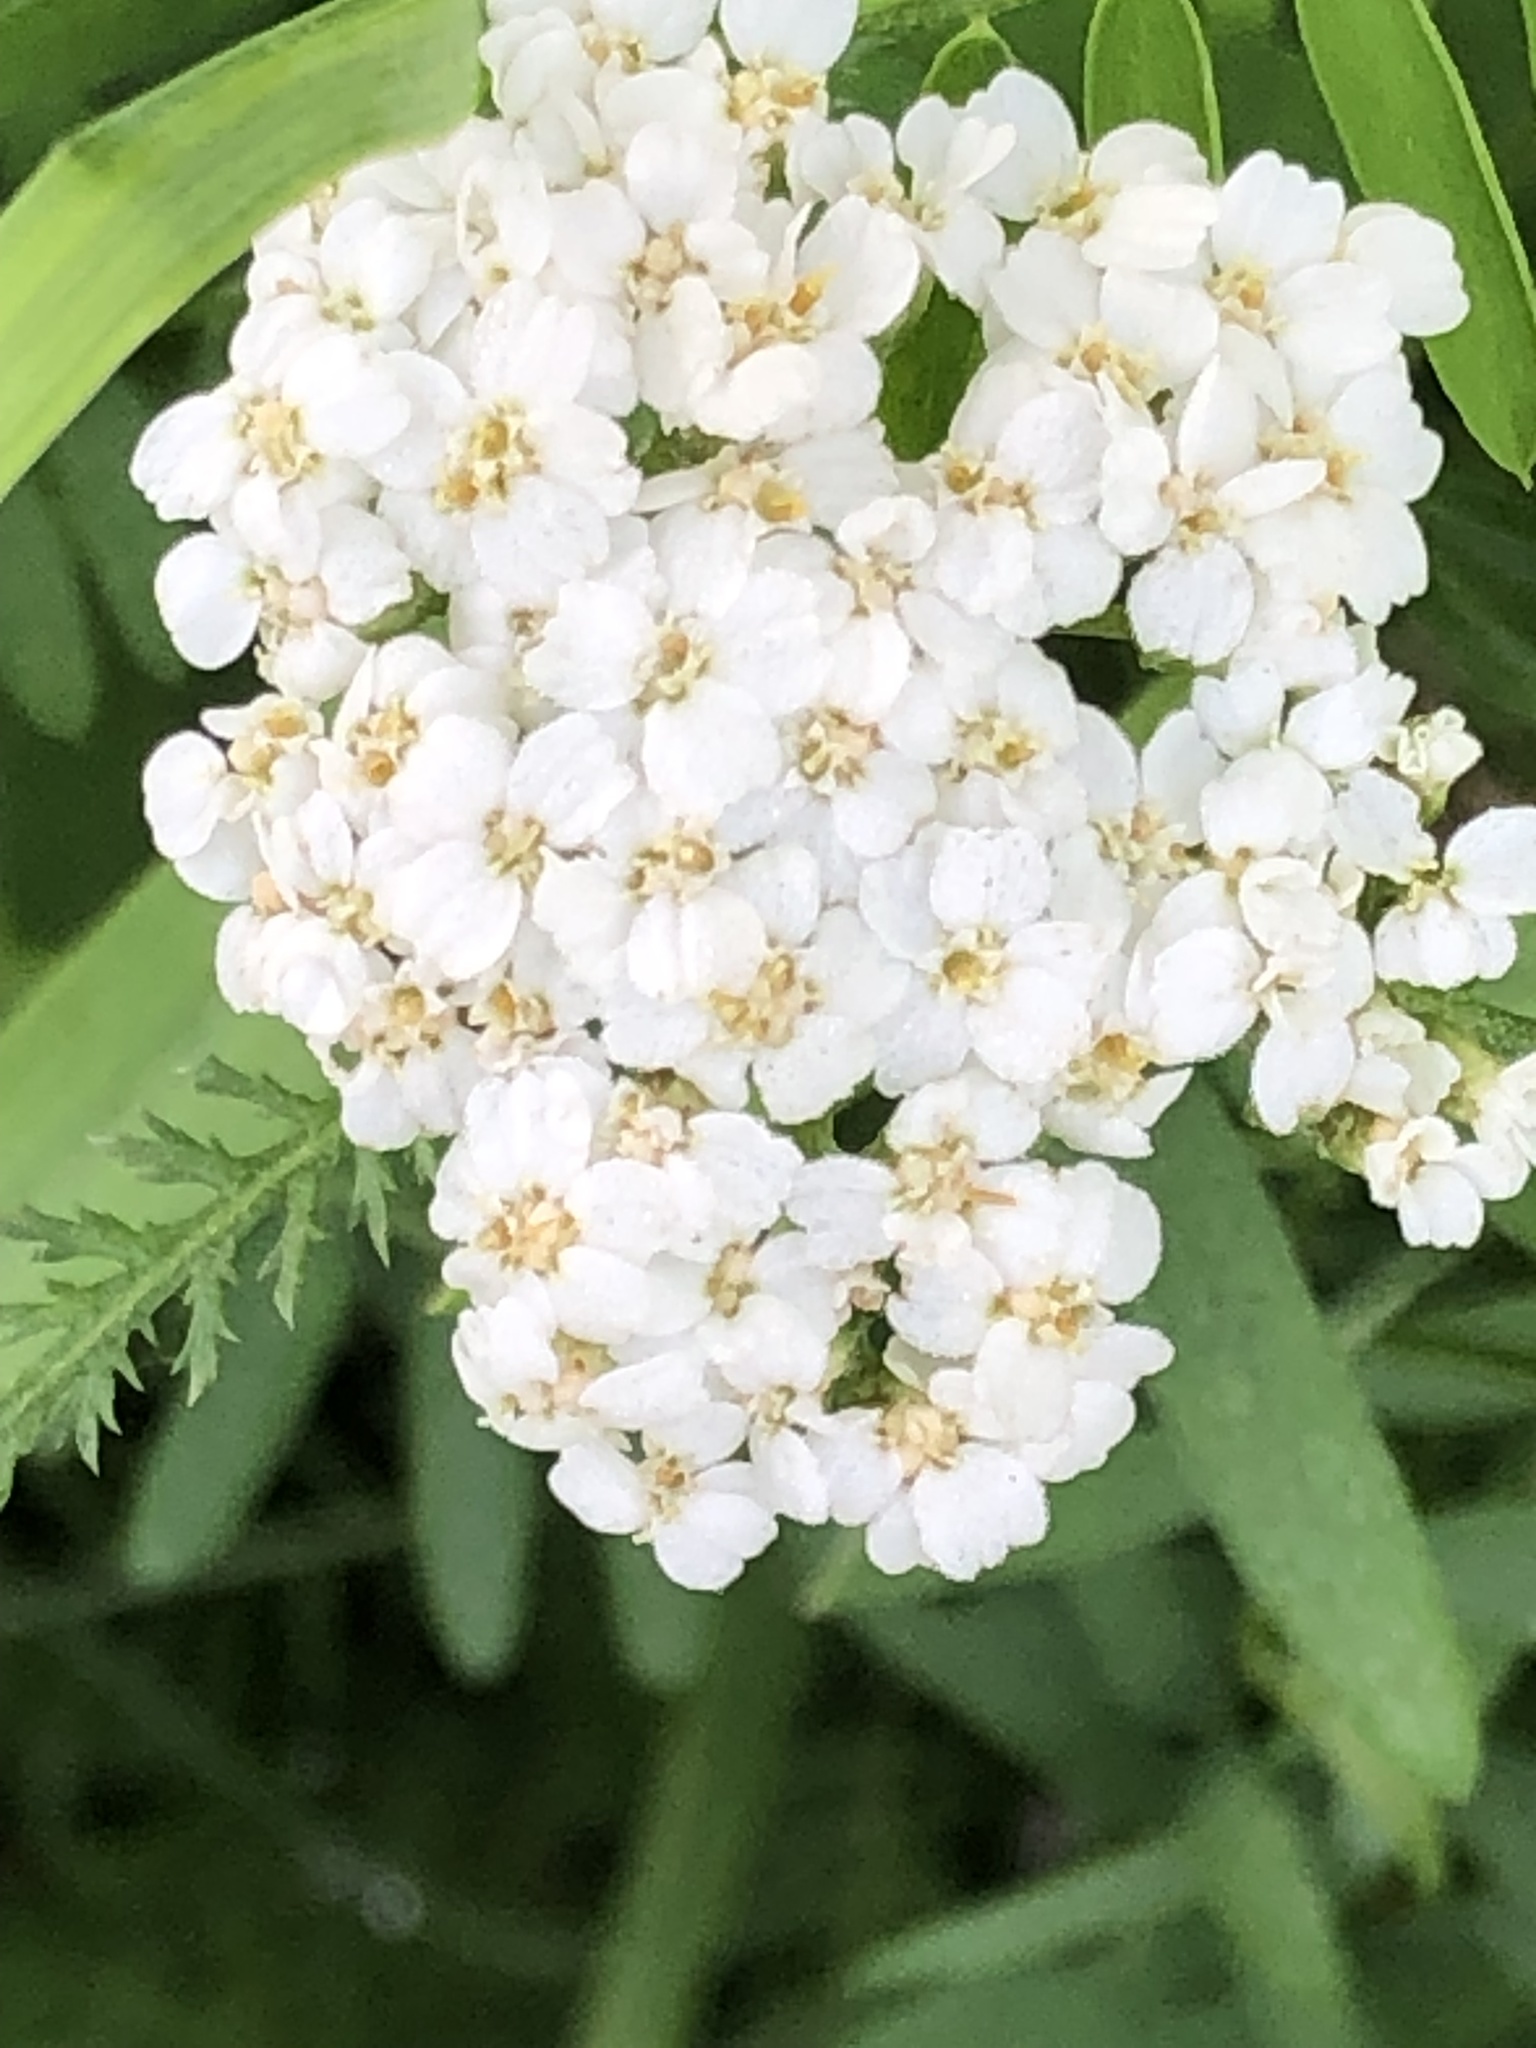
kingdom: Plantae
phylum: Tracheophyta
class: Magnoliopsida
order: Asterales
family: Asteraceae
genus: Achillea
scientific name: Achillea millefolium
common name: Yarrow
